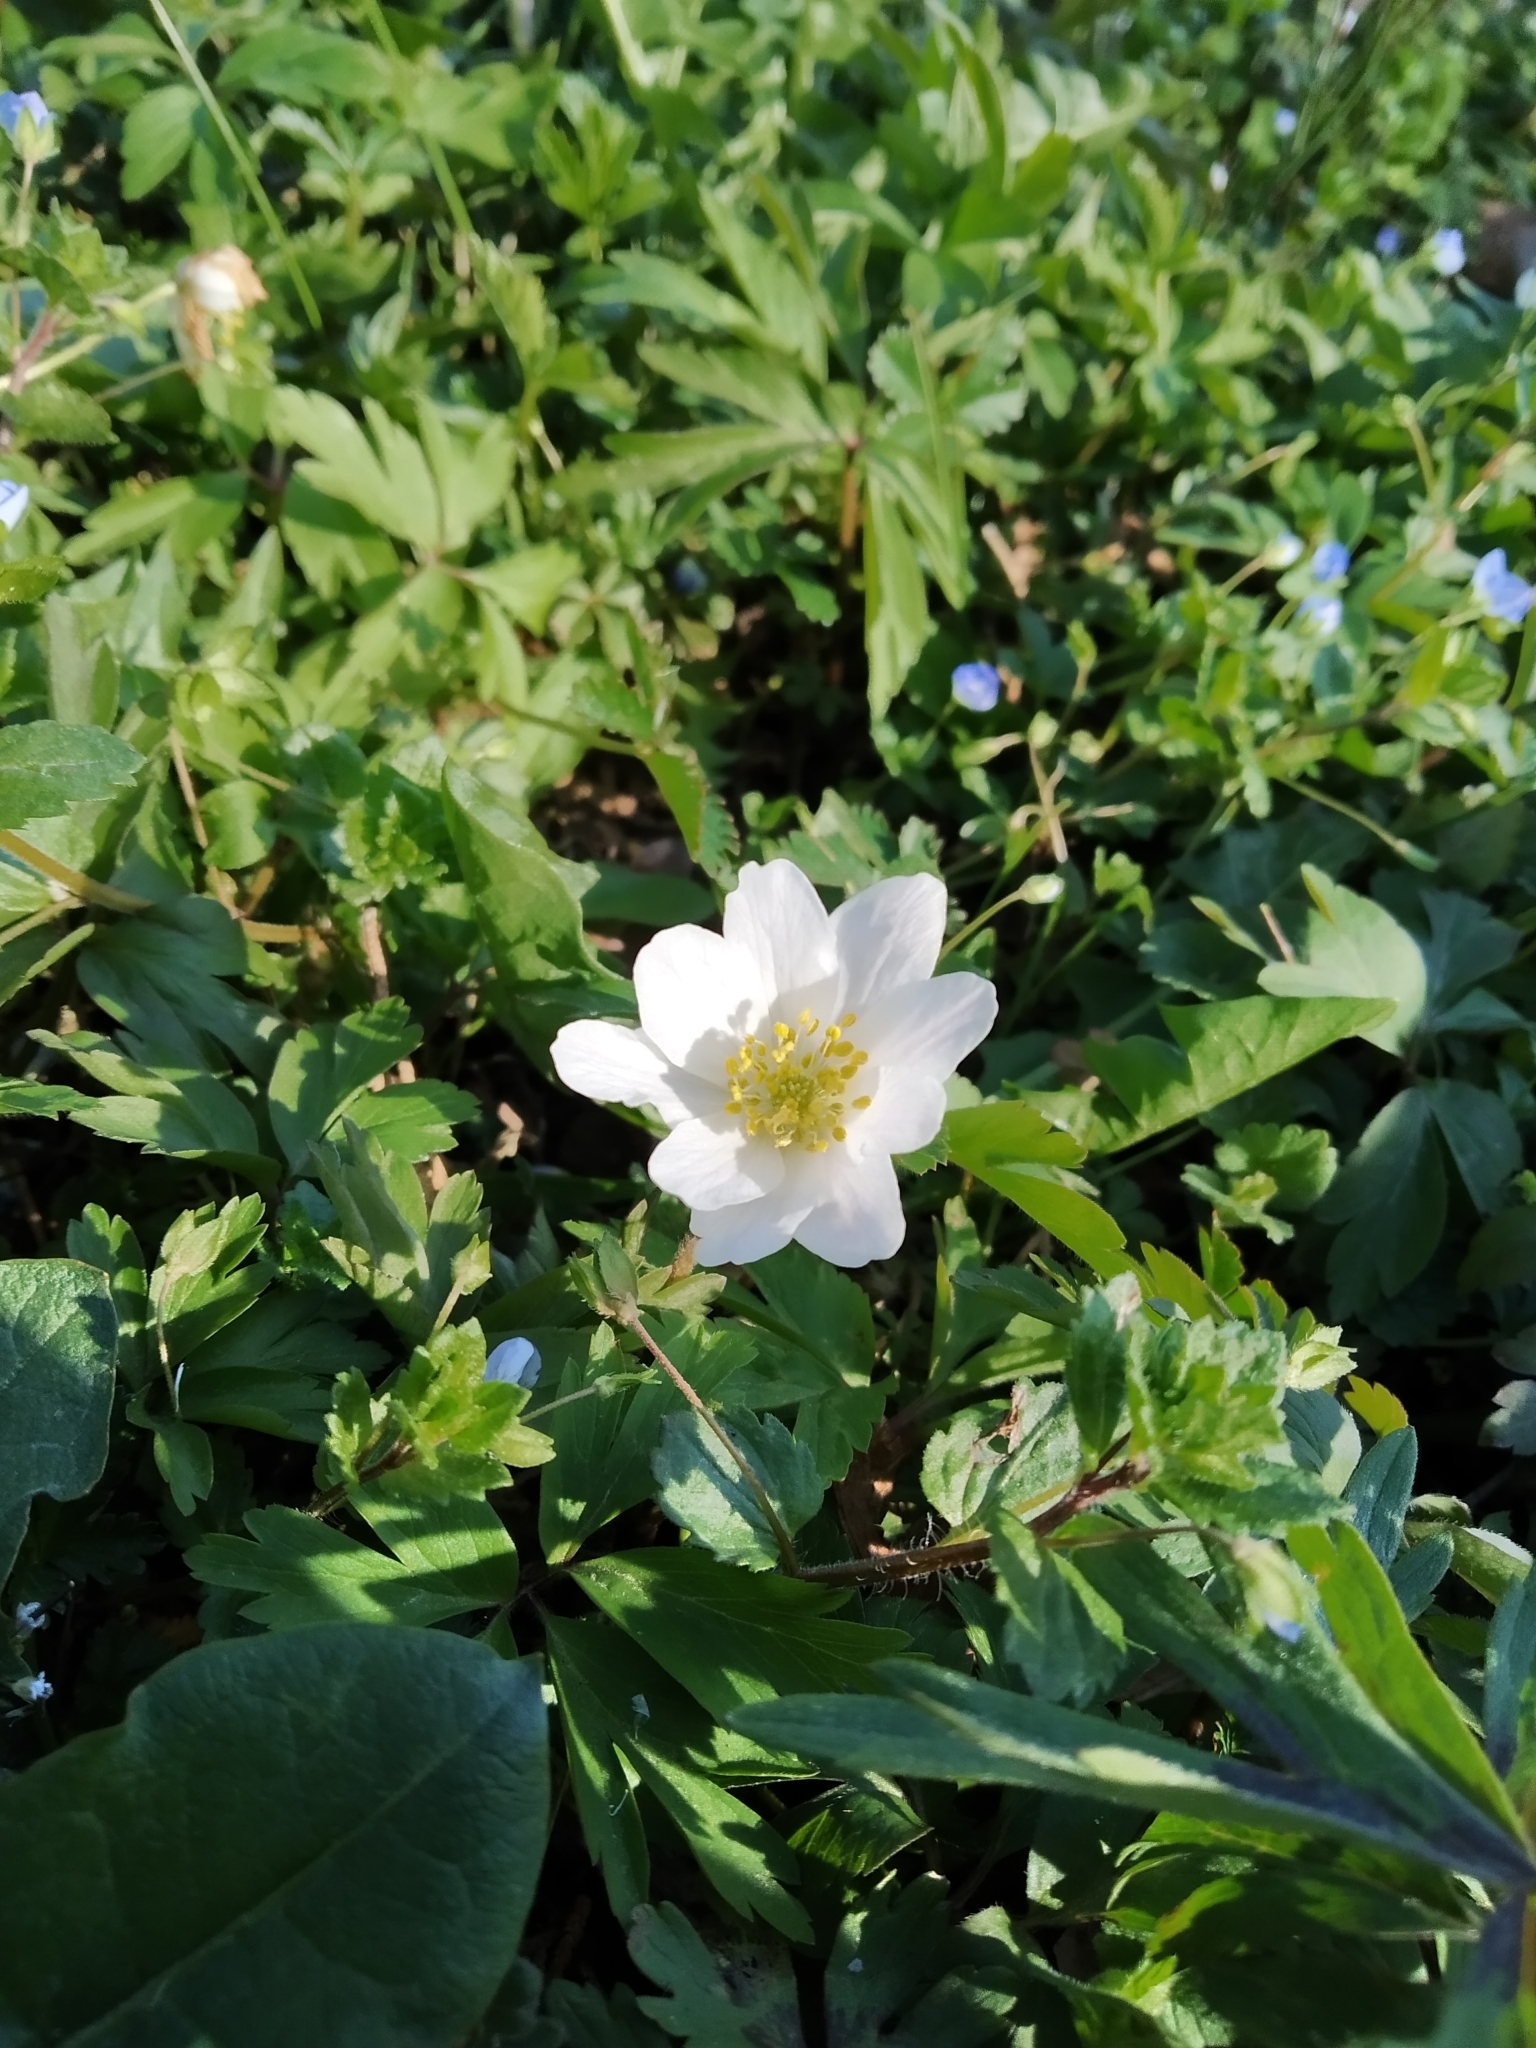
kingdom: Plantae
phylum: Tracheophyta
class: Magnoliopsida
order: Ranunculales
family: Ranunculaceae
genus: Anemone
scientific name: Anemone nemorosa
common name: Wood anemone
